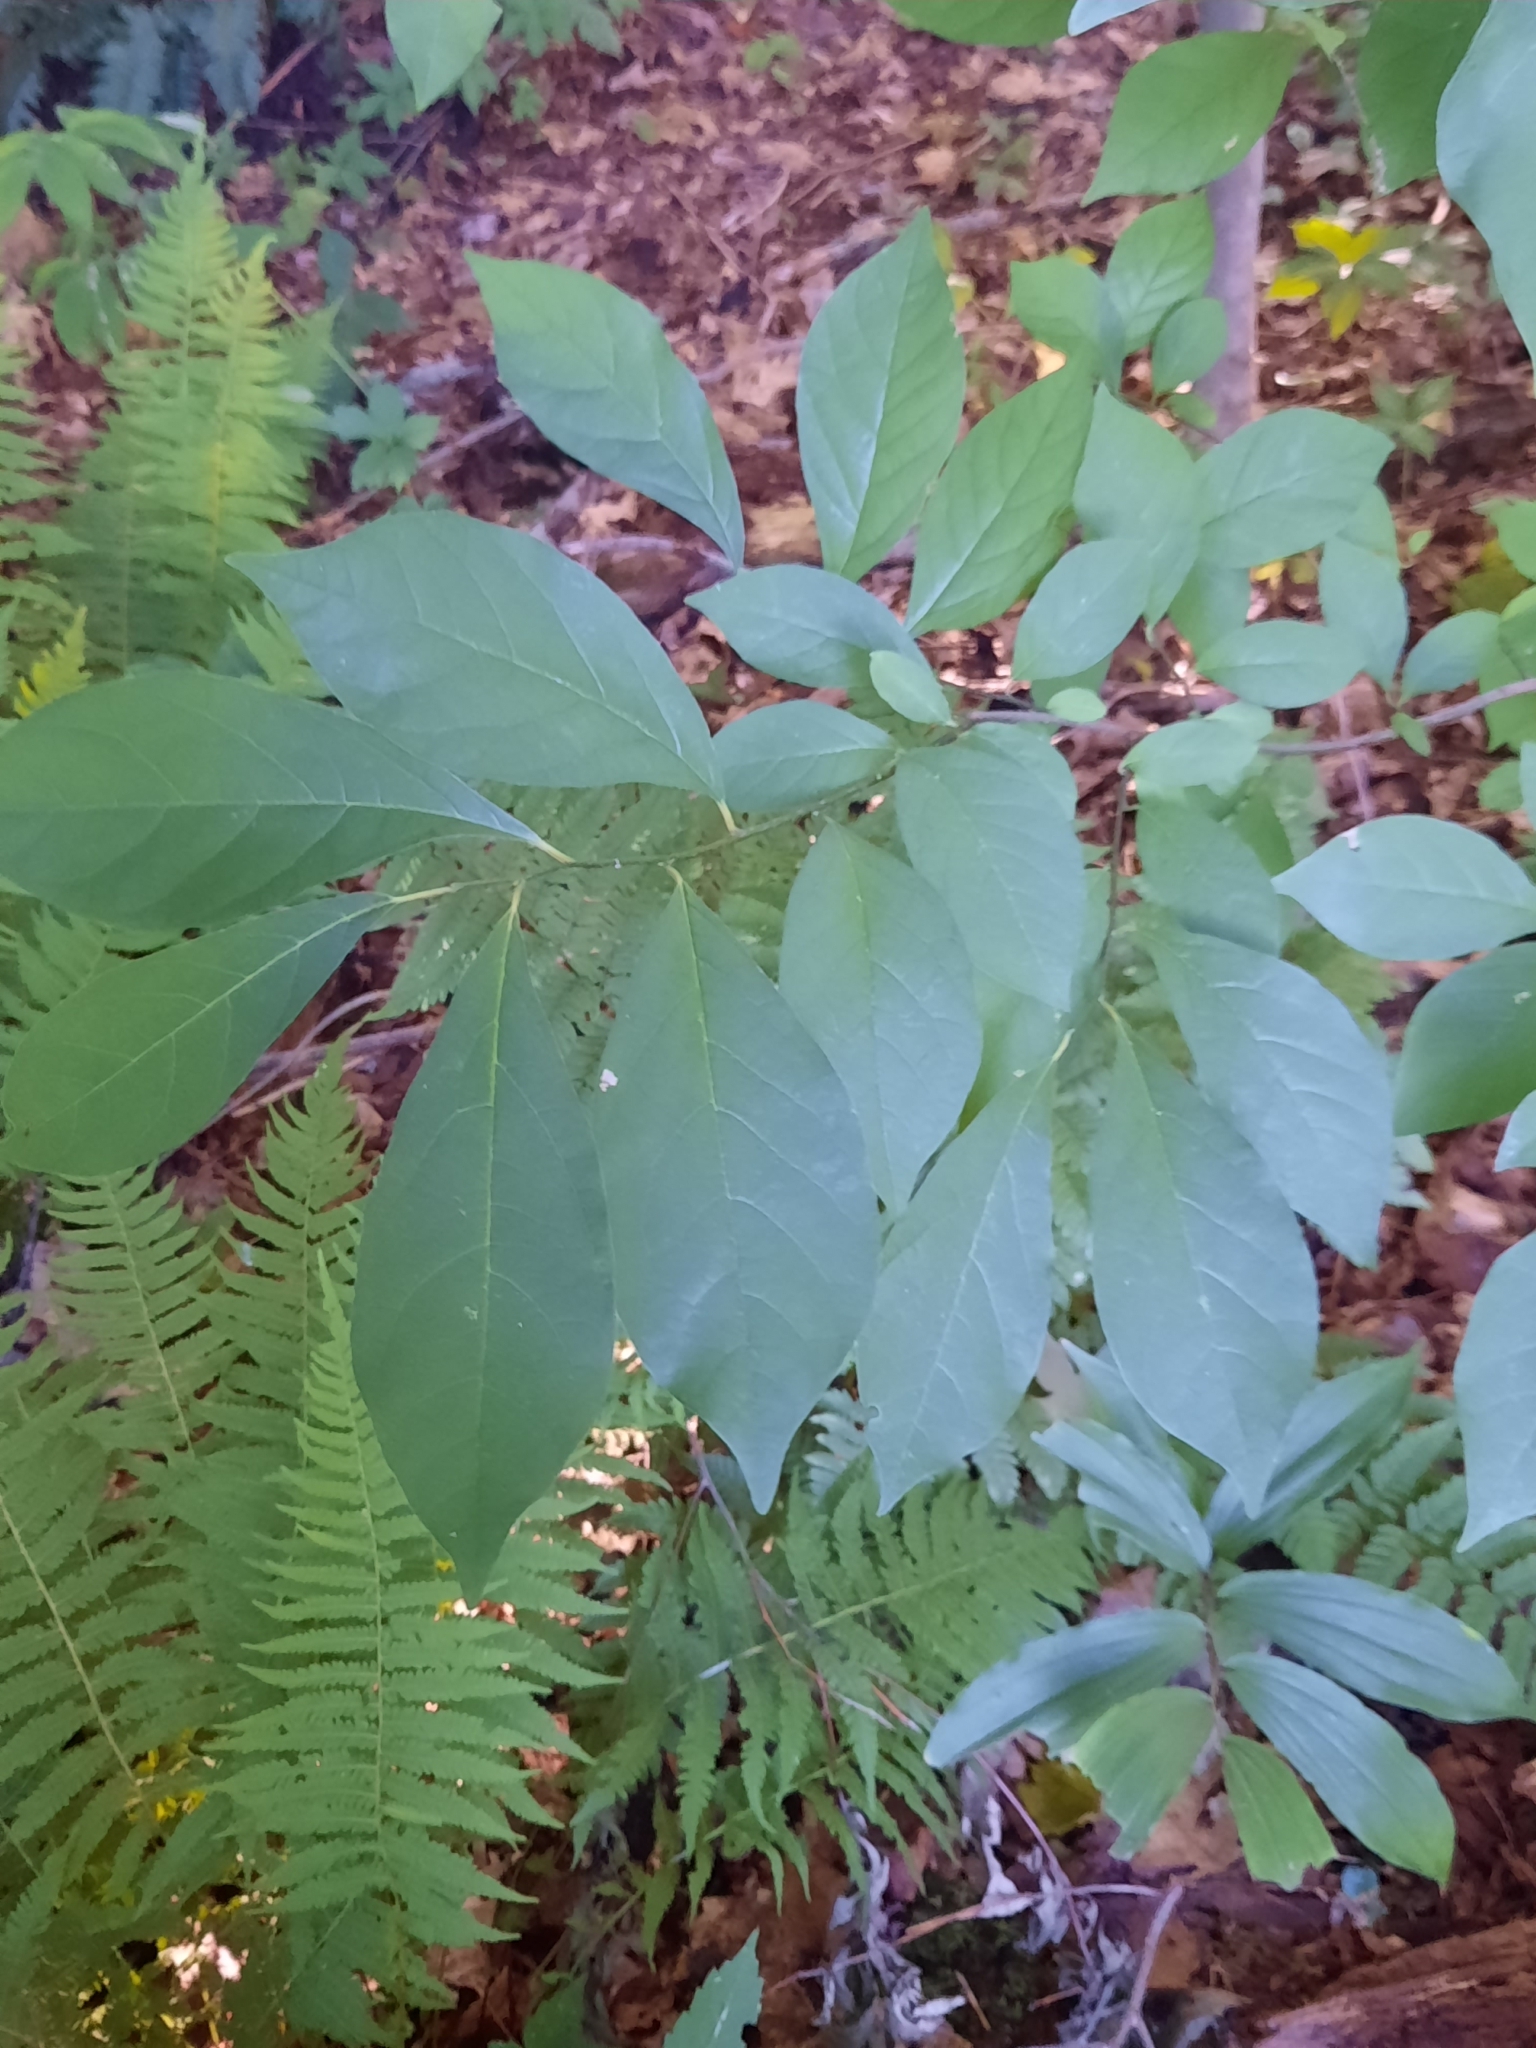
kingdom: Plantae
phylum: Tracheophyta
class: Magnoliopsida
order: Laurales
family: Lauraceae
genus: Lindera
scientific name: Lindera benzoin
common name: Spicebush
